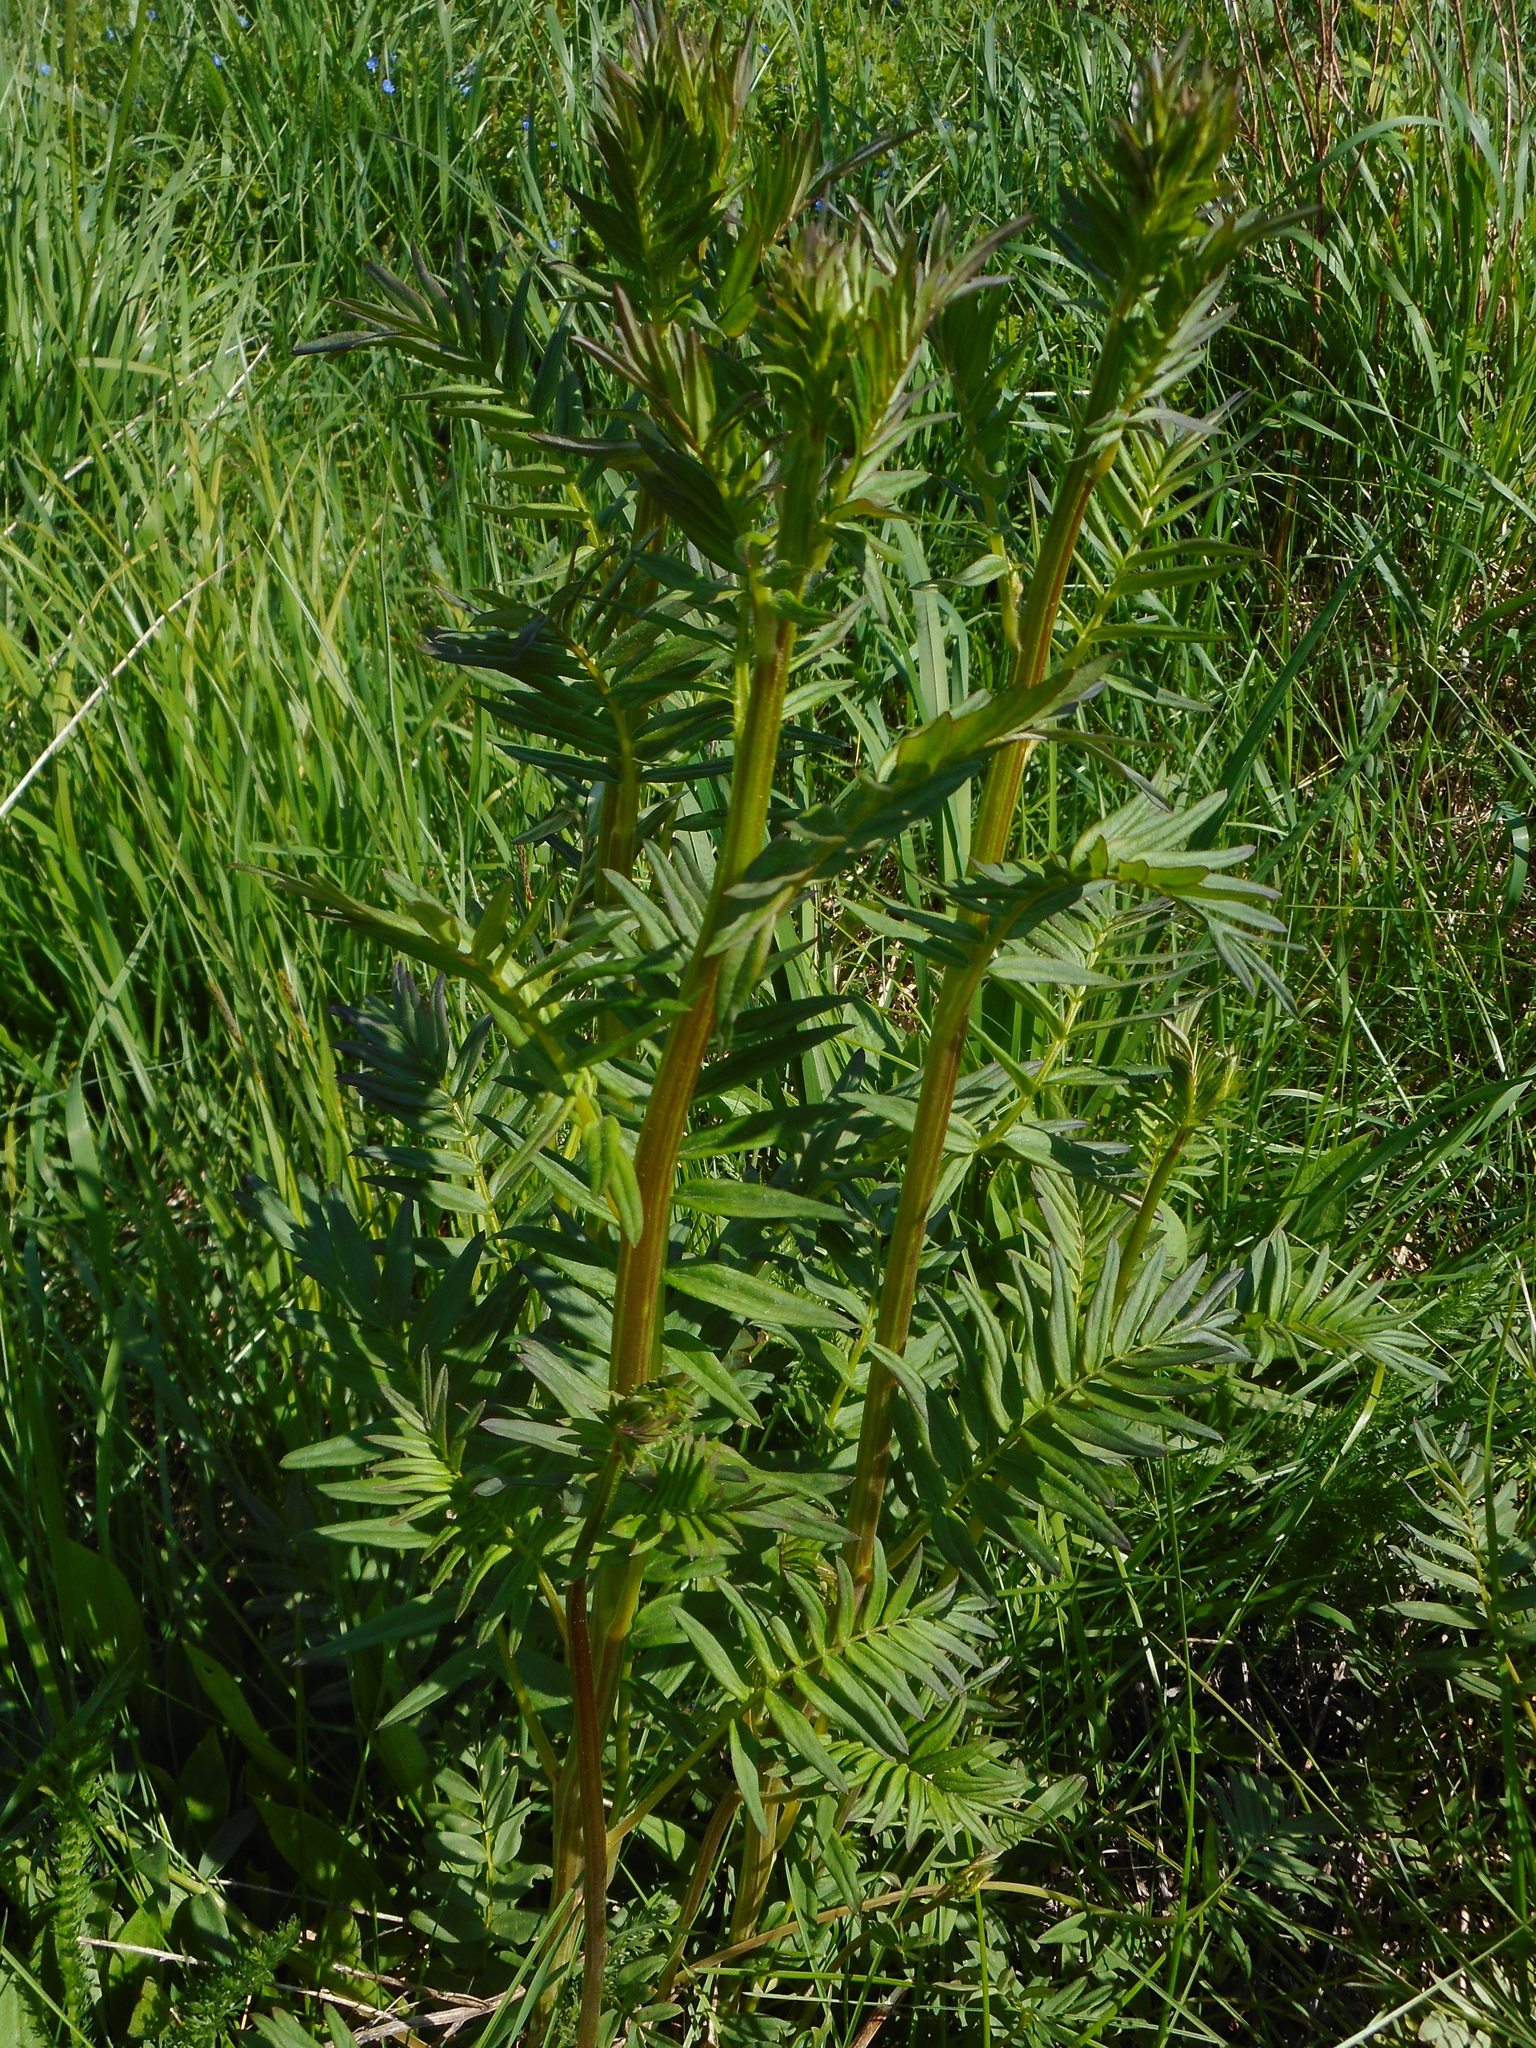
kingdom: Plantae
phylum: Tracheophyta
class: Magnoliopsida
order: Ericales
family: Polemoniaceae
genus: Polemonium
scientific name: Polemonium caeruleum
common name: Jacob's-ladder
